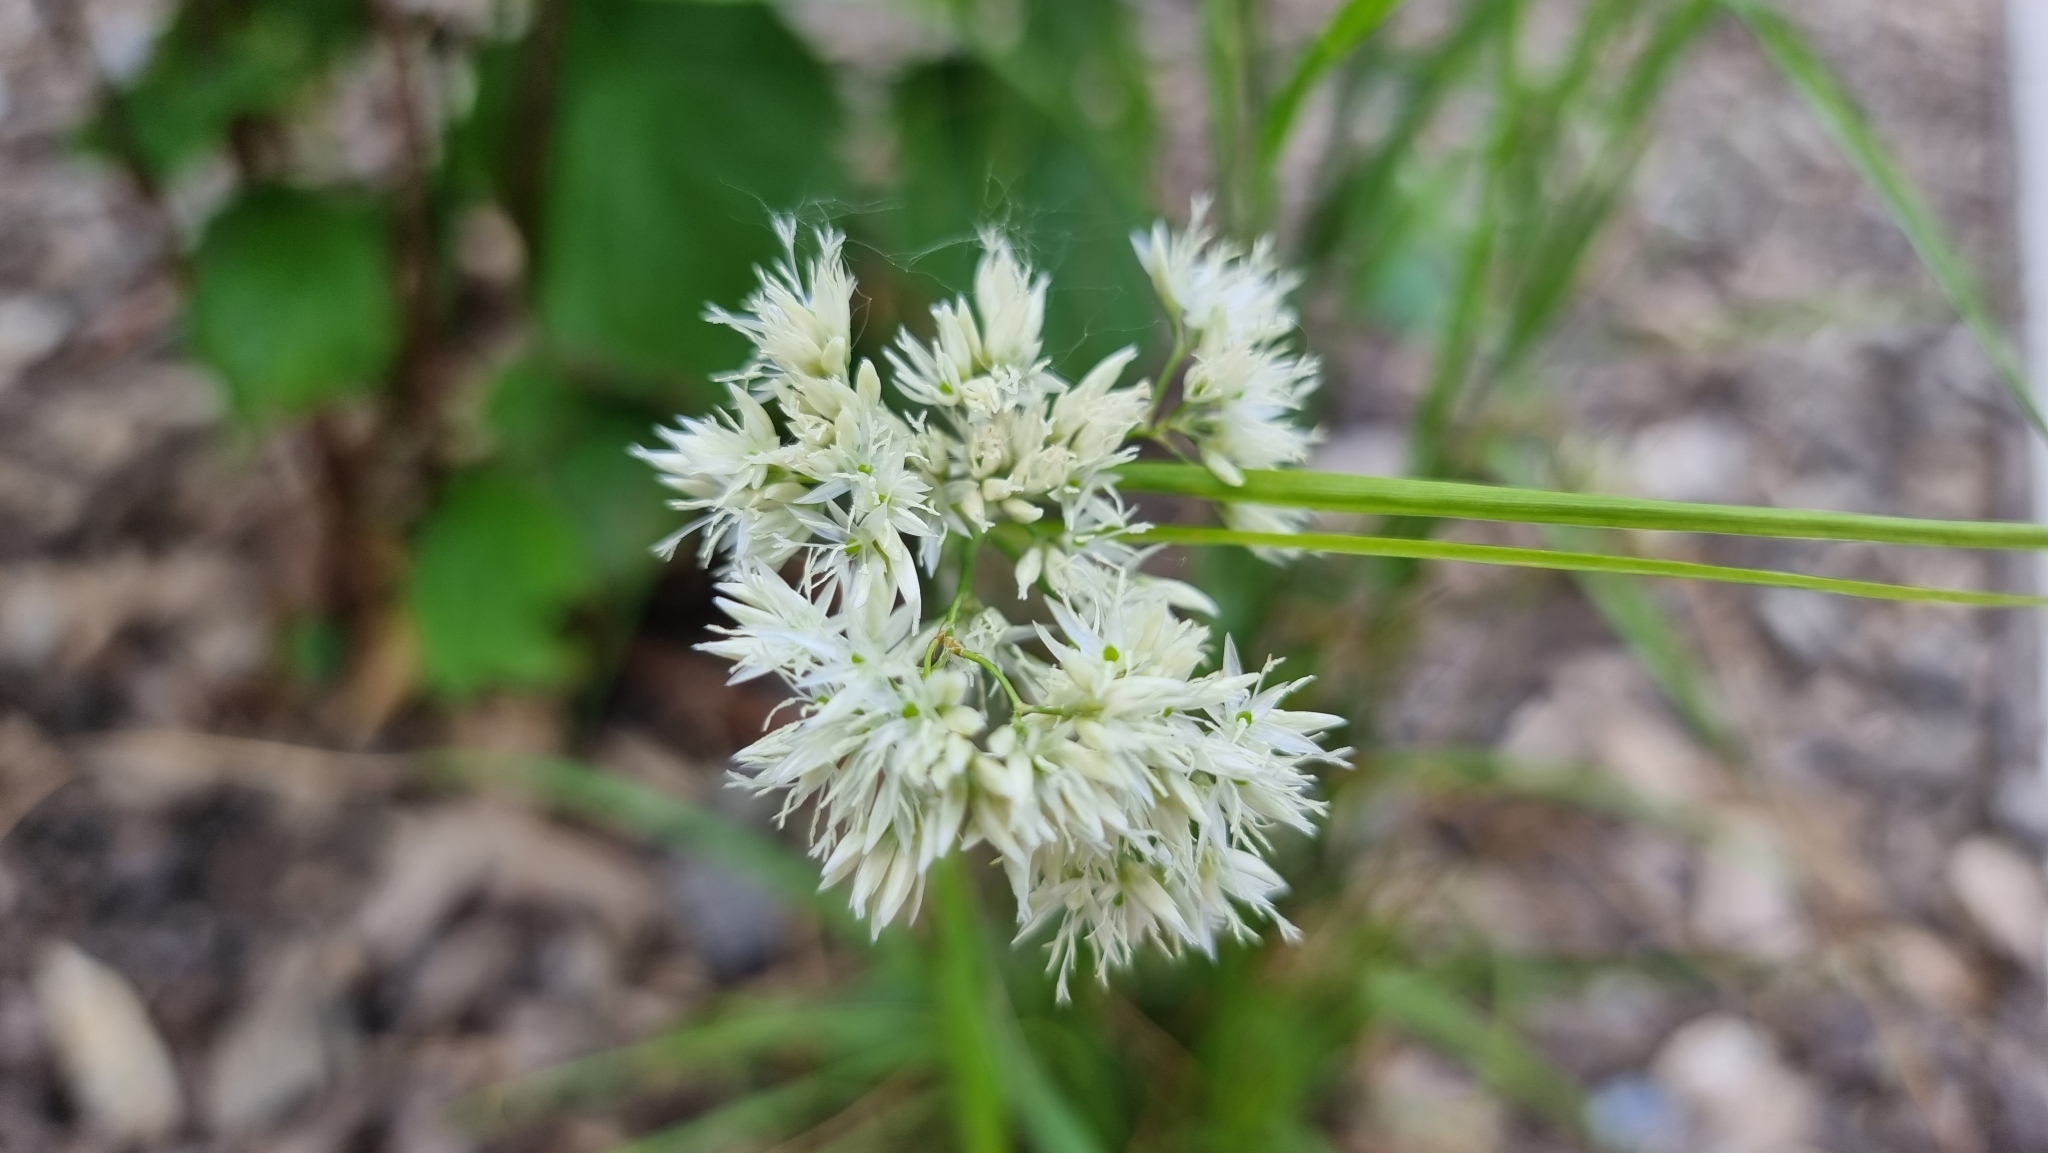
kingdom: Plantae
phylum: Tracheophyta
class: Liliopsida
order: Poales
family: Juncaceae
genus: Luzula
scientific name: Luzula nivea
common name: Snow-white wood-rush
